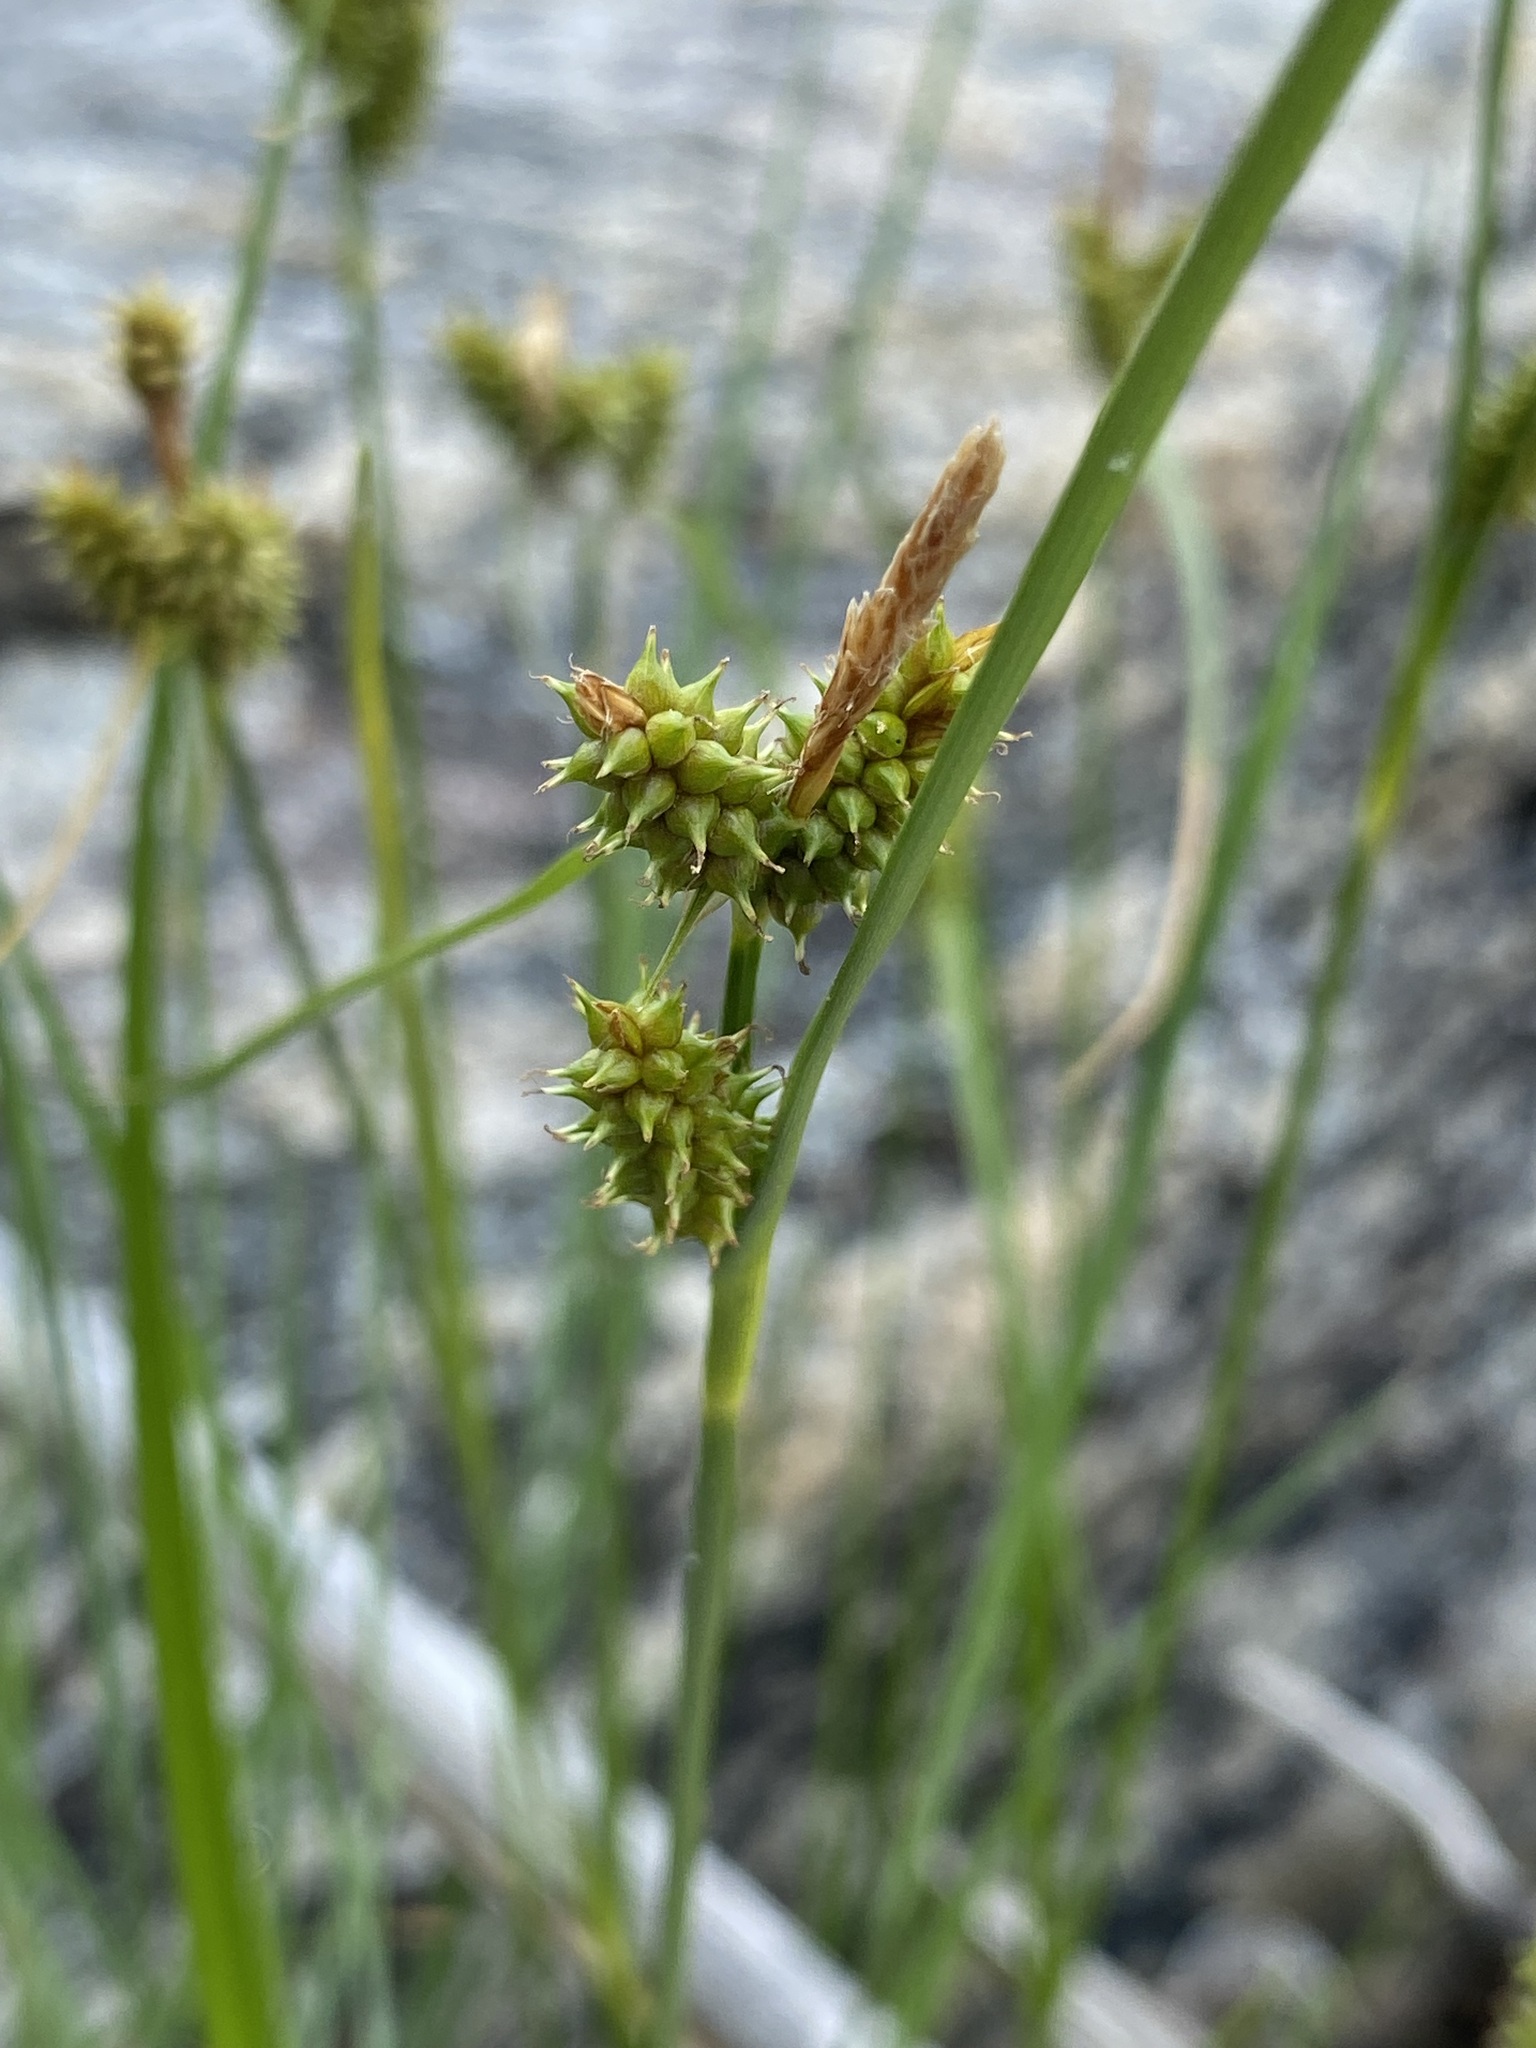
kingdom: Plantae
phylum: Tracheophyta
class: Liliopsida
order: Poales
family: Cyperaceae
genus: Carex
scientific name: Carex
